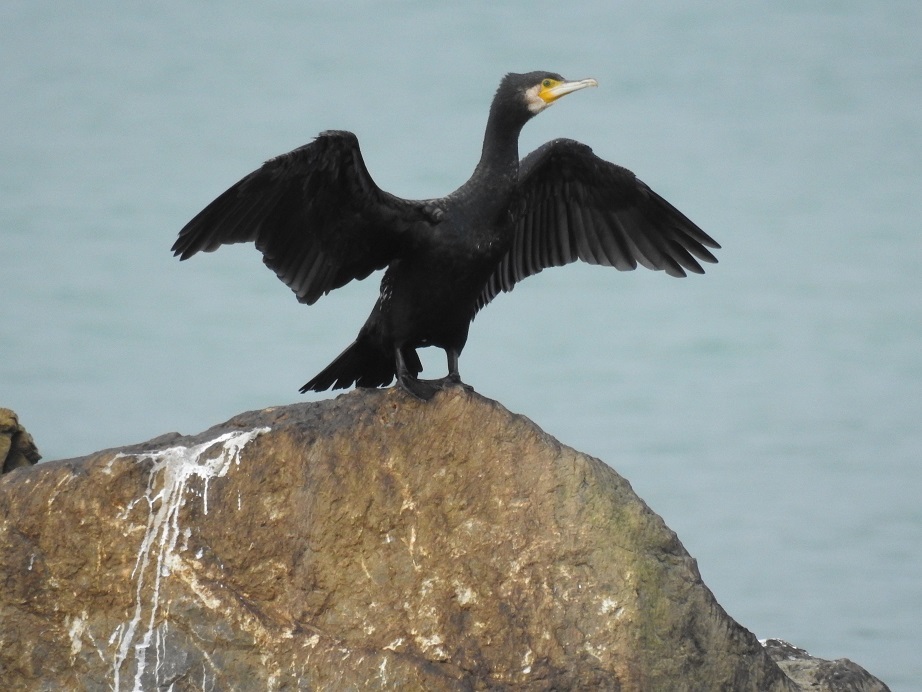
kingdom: Animalia
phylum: Chordata
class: Aves
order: Suliformes
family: Phalacrocoracidae
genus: Phalacrocorax
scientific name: Phalacrocorax carbo
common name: Great cormorant
